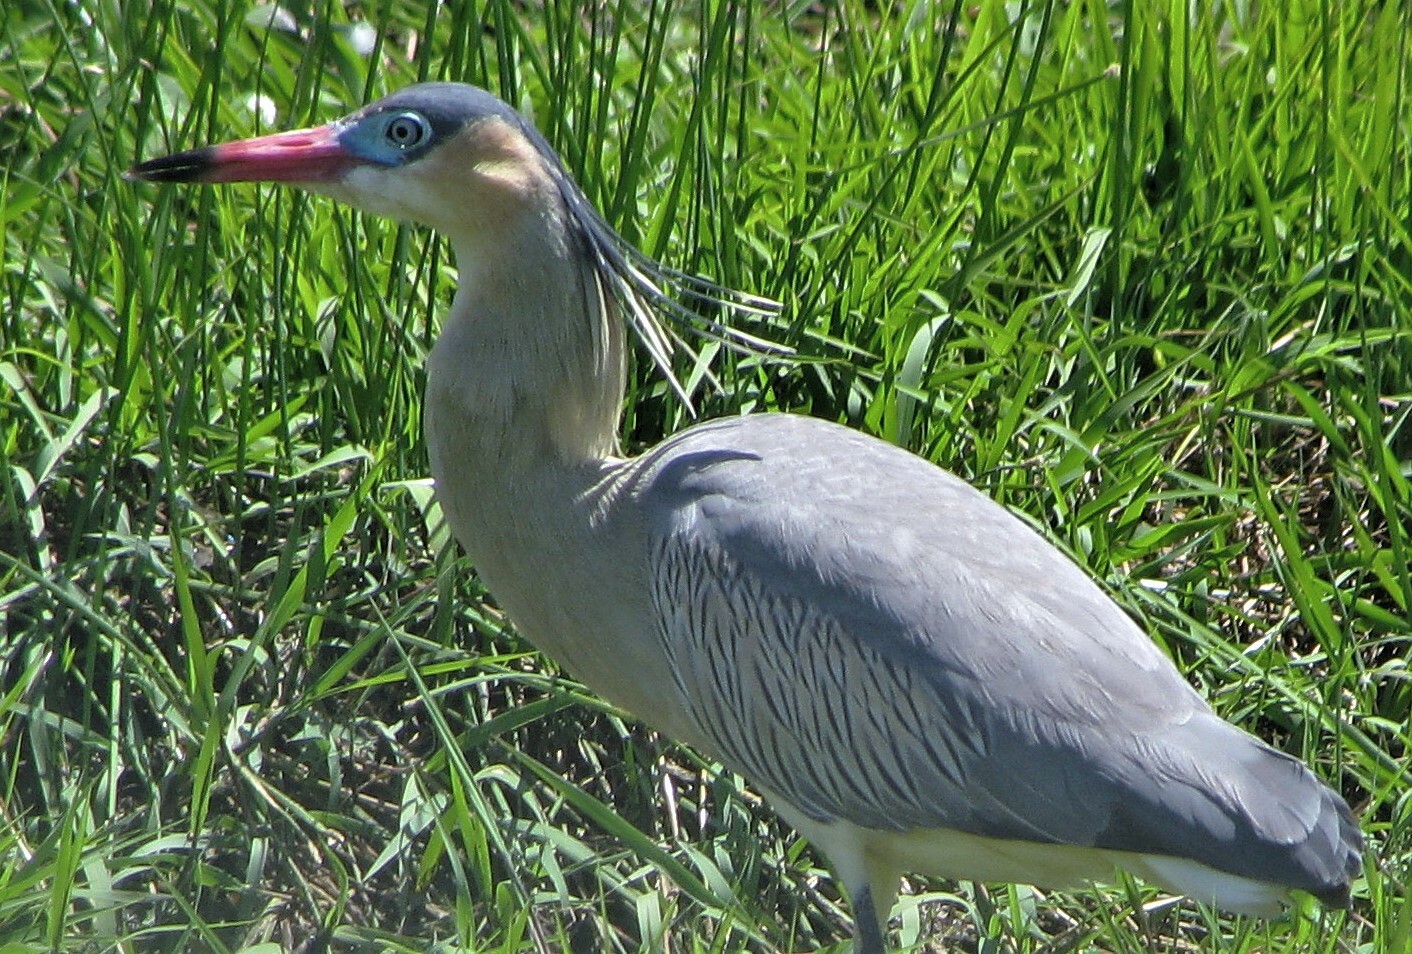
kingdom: Animalia
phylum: Chordata
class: Aves
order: Pelecaniformes
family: Ardeidae
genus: Syrigma
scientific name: Syrigma sibilatrix
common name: Whistling heron
